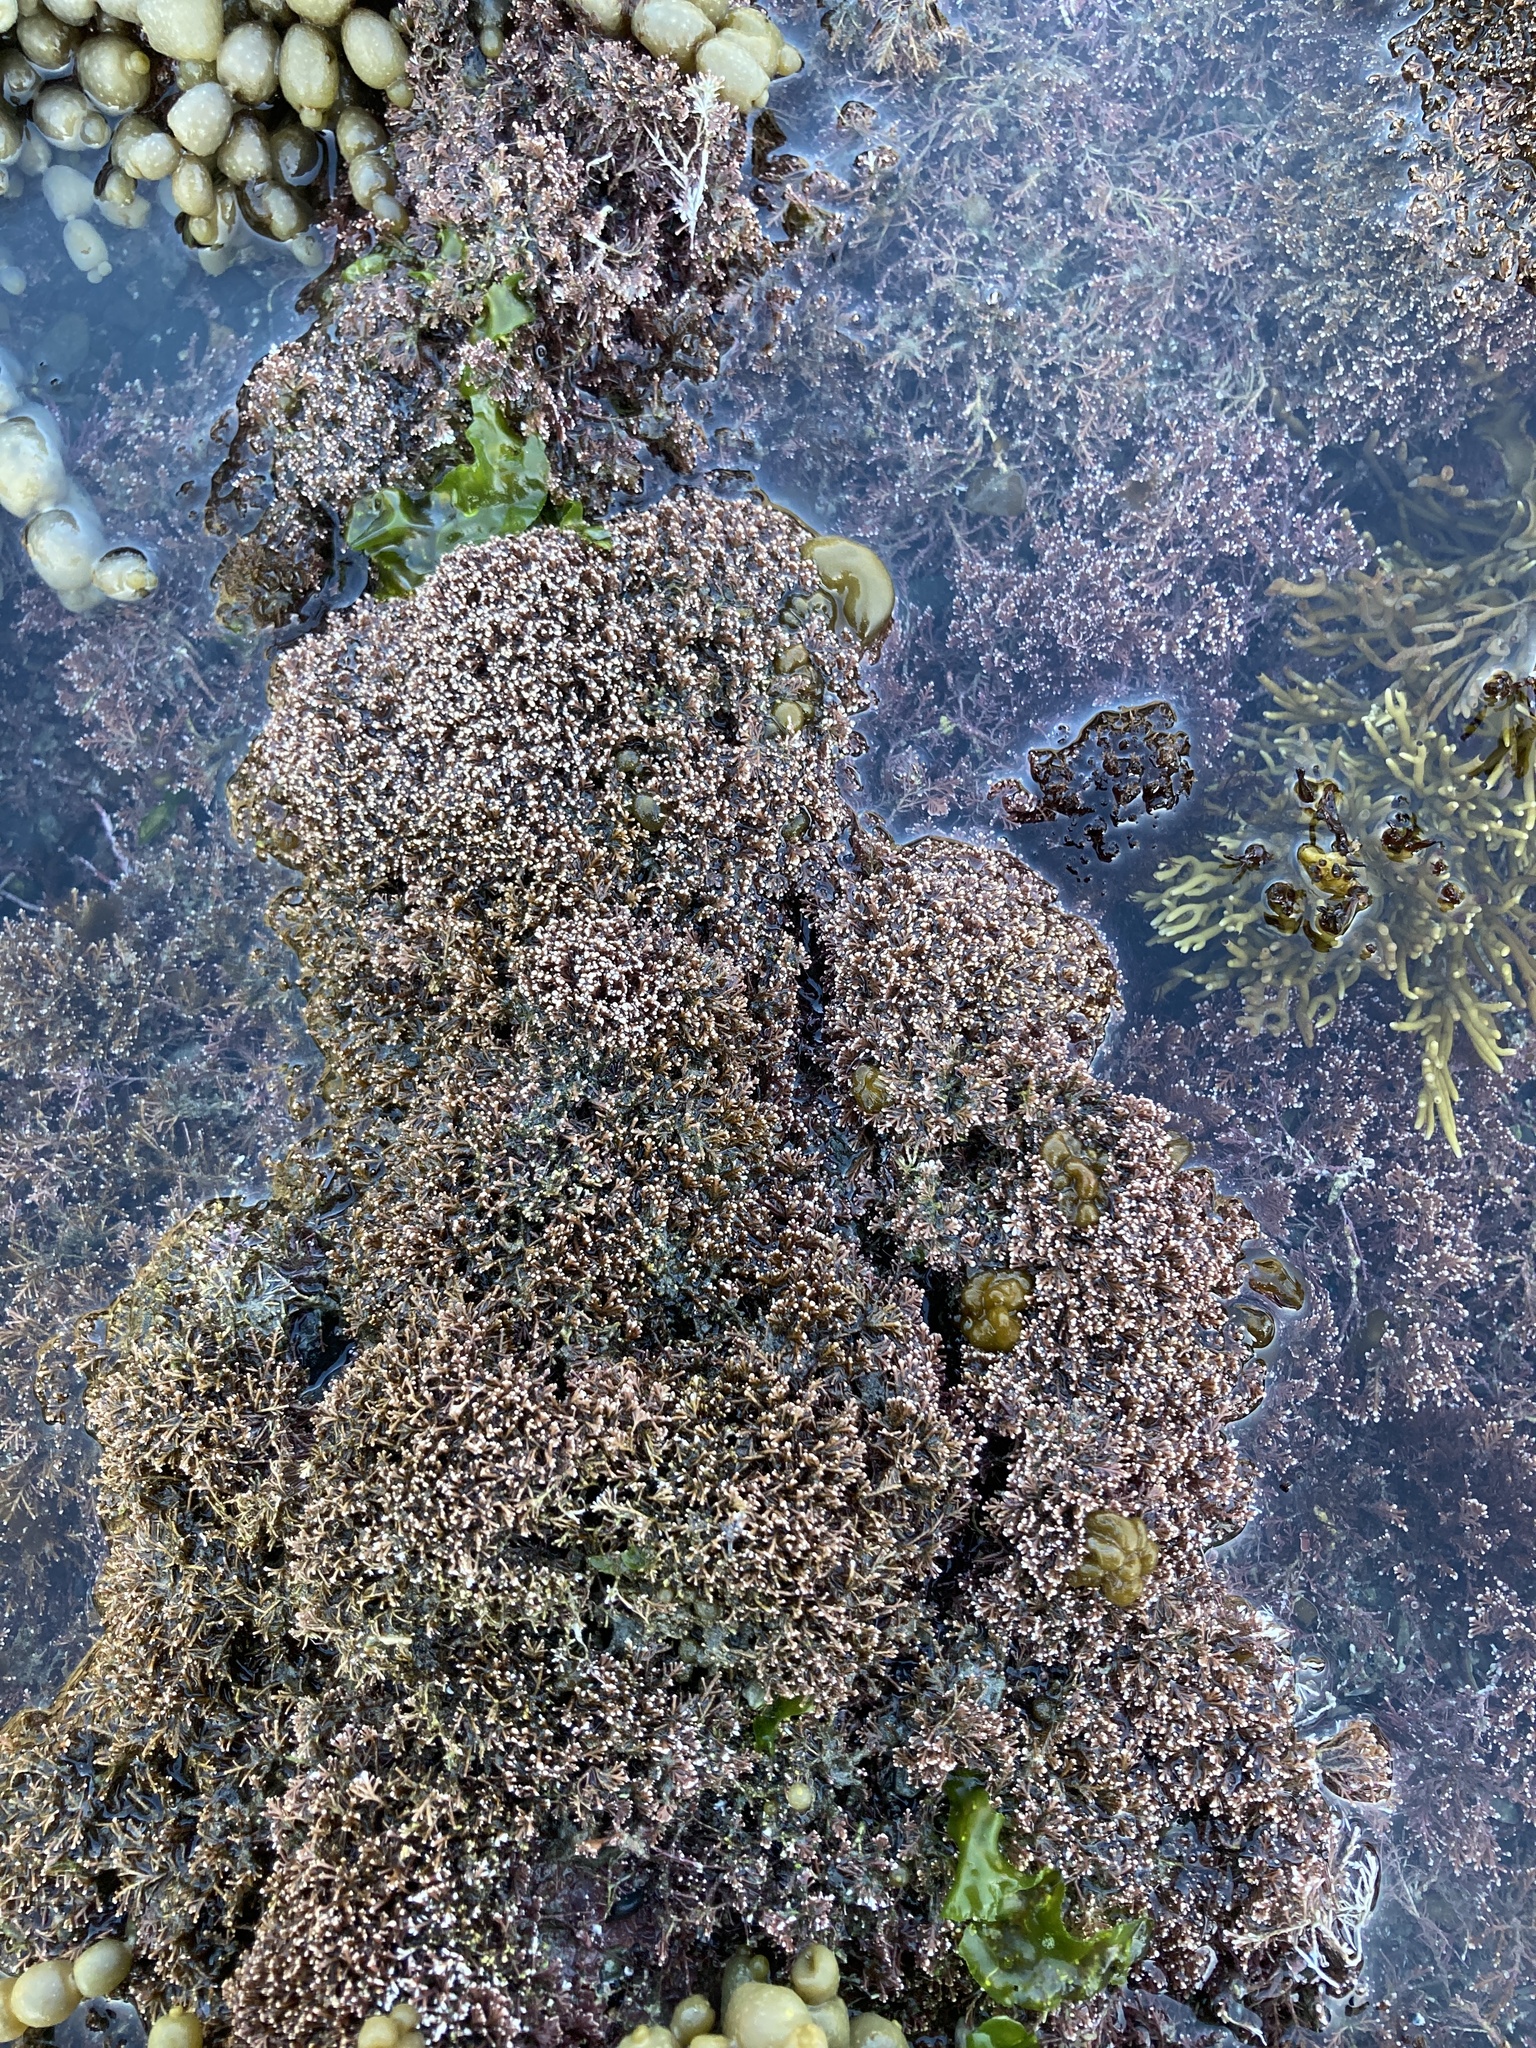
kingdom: Plantae
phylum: Rhodophyta
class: Florideophyceae
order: Corallinales
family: Corallinaceae
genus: Corallina
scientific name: Corallina officinalis
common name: Coral weed
